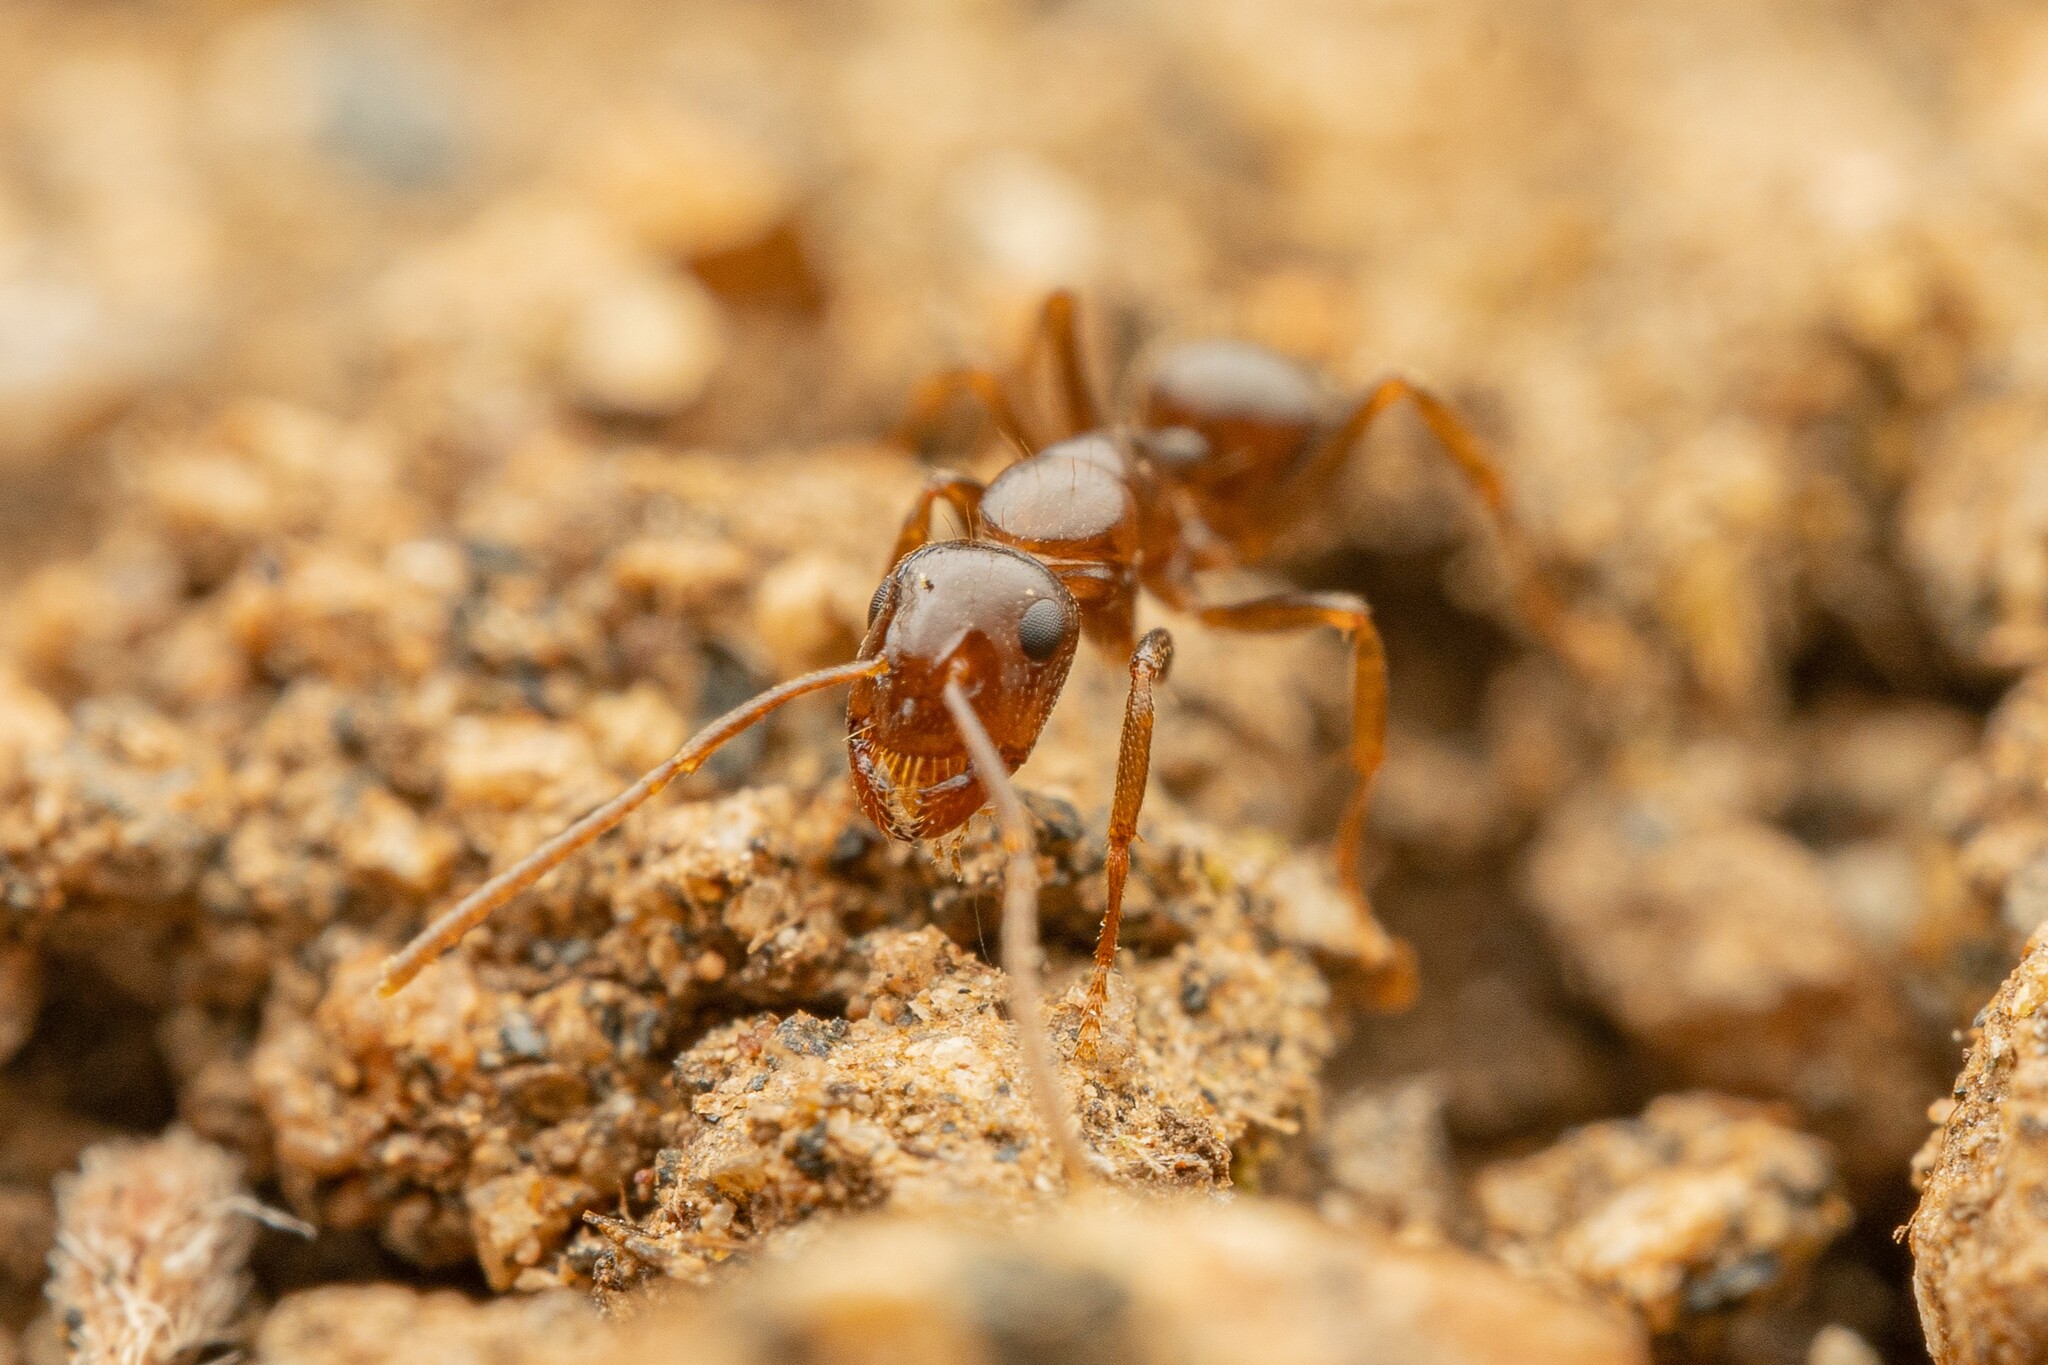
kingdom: Animalia
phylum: Arthropoda
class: Insecta
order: Hymenoptera
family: Formicidae
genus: Camponotus
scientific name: Camponotus
